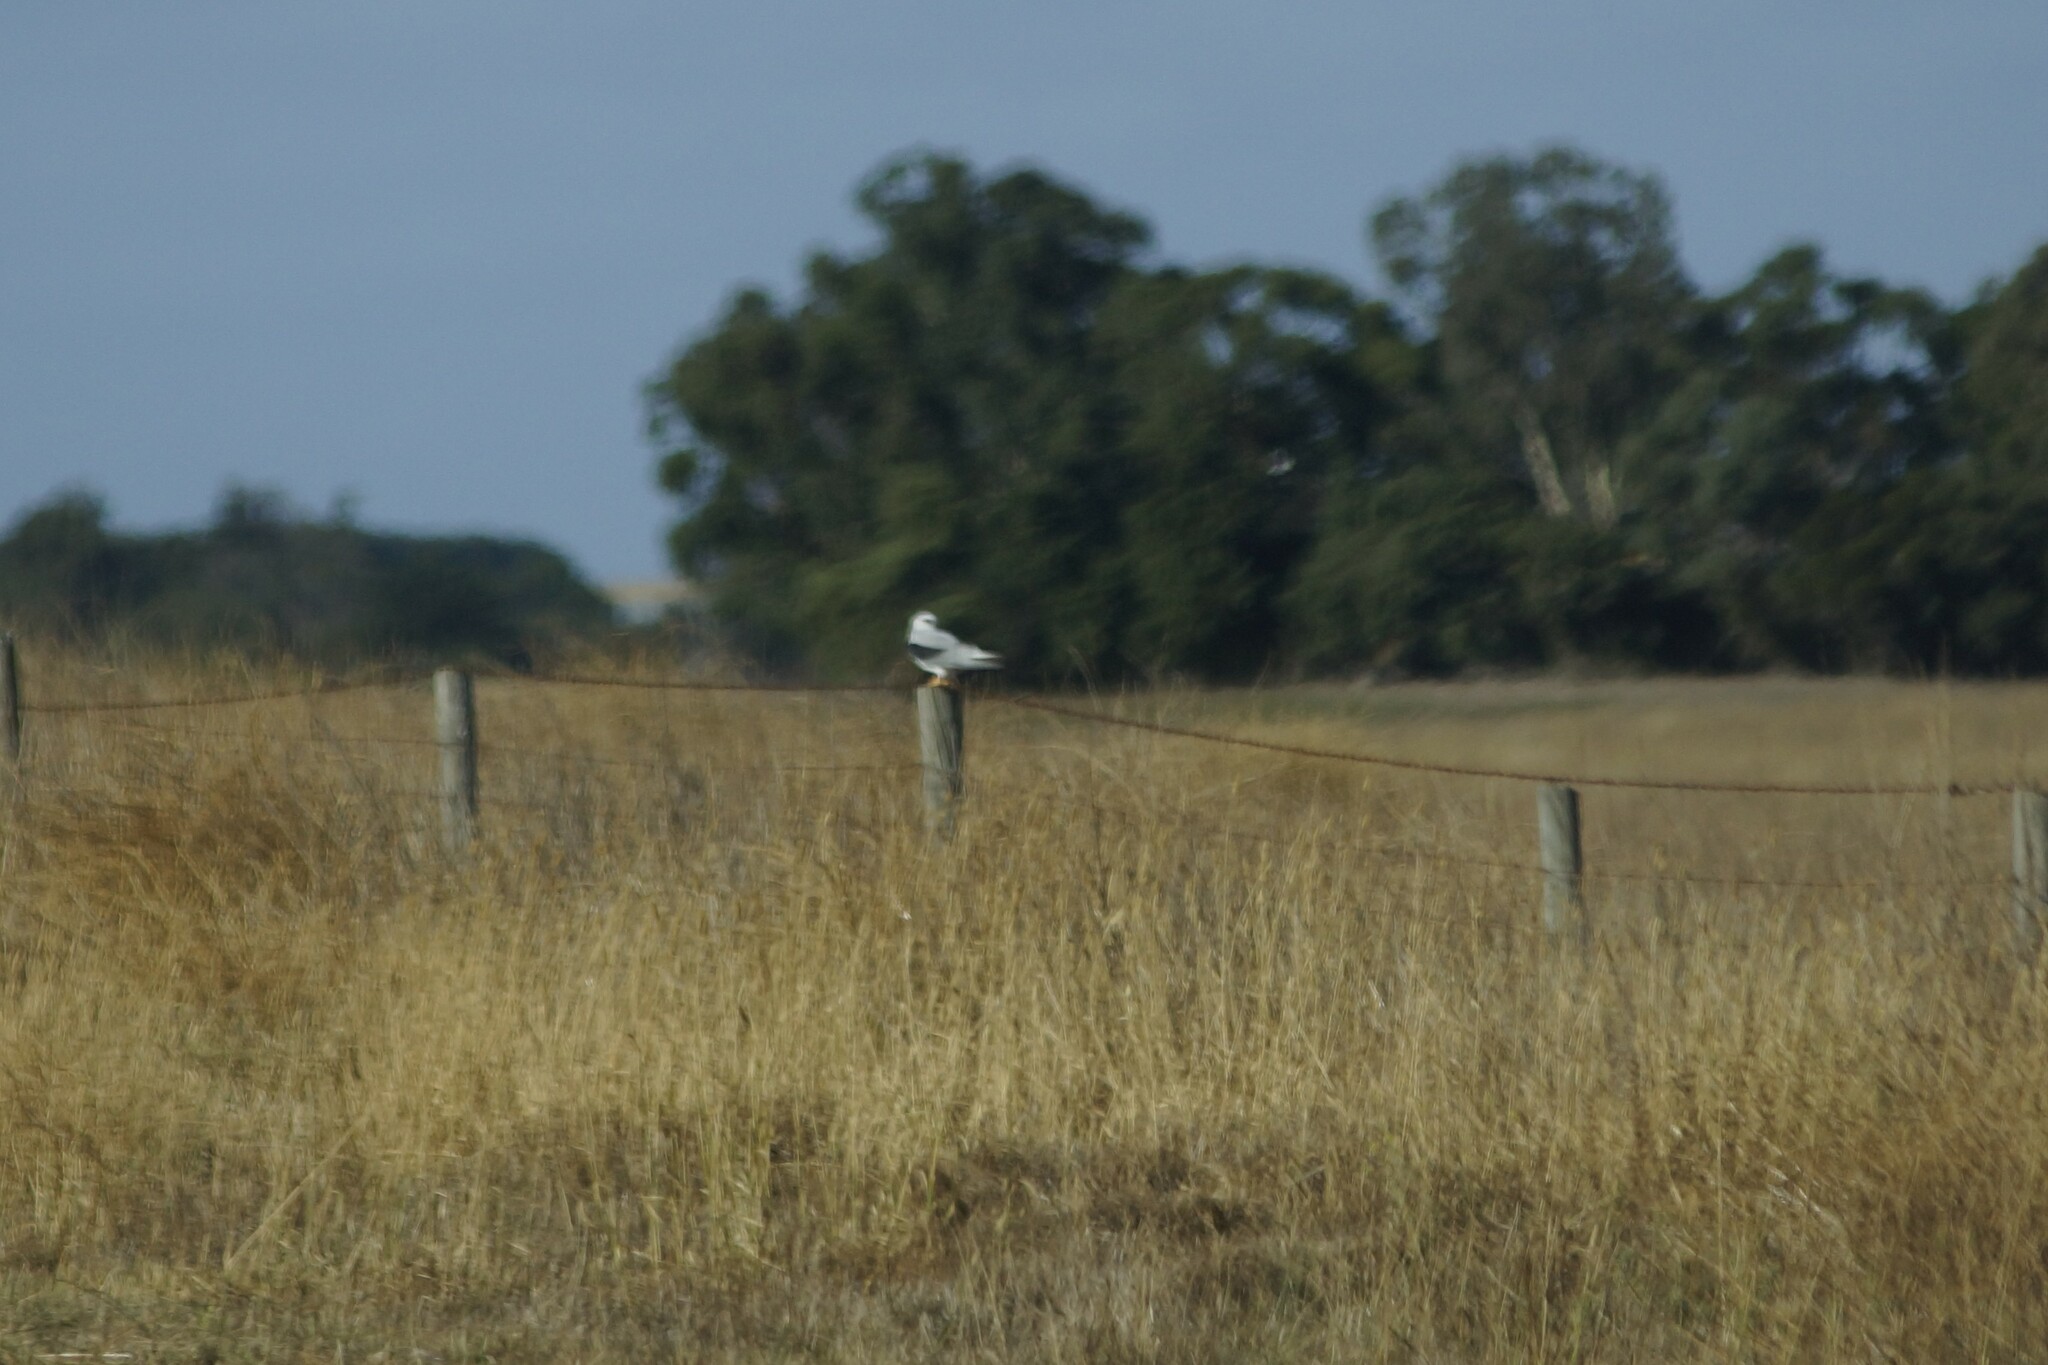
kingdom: Animalia
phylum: Chordata
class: Aves
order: Accipitriformes
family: Accipitridae
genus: Elanus
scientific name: Elanus axillaris
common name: Black-shouldered kite
